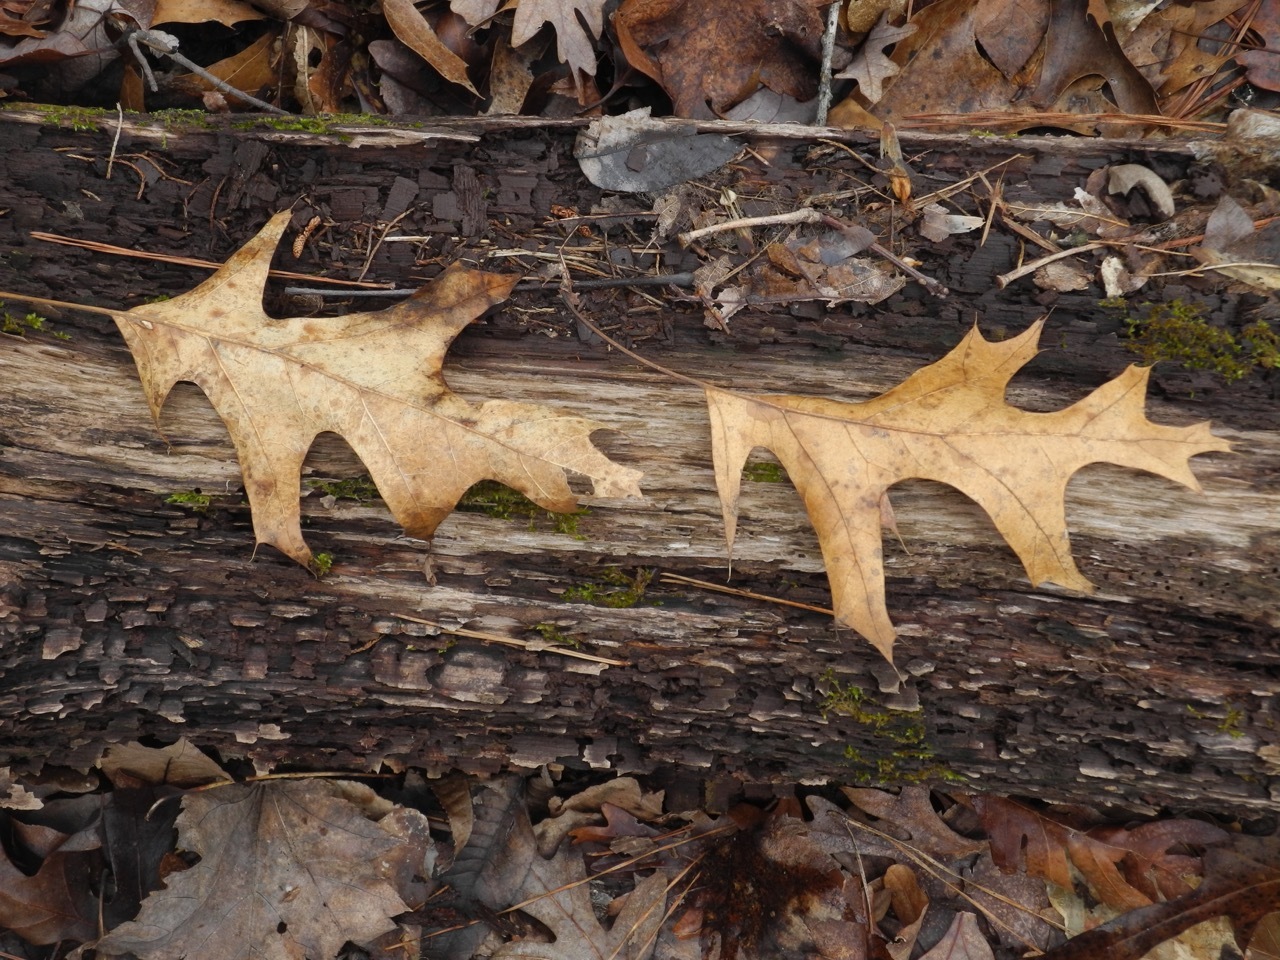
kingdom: Plantae
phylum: Tracheophyta
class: Magnoliopsida
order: Fagales
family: Fagaceae
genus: Quercus
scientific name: Quercus pagoda
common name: Cherrybark oak
